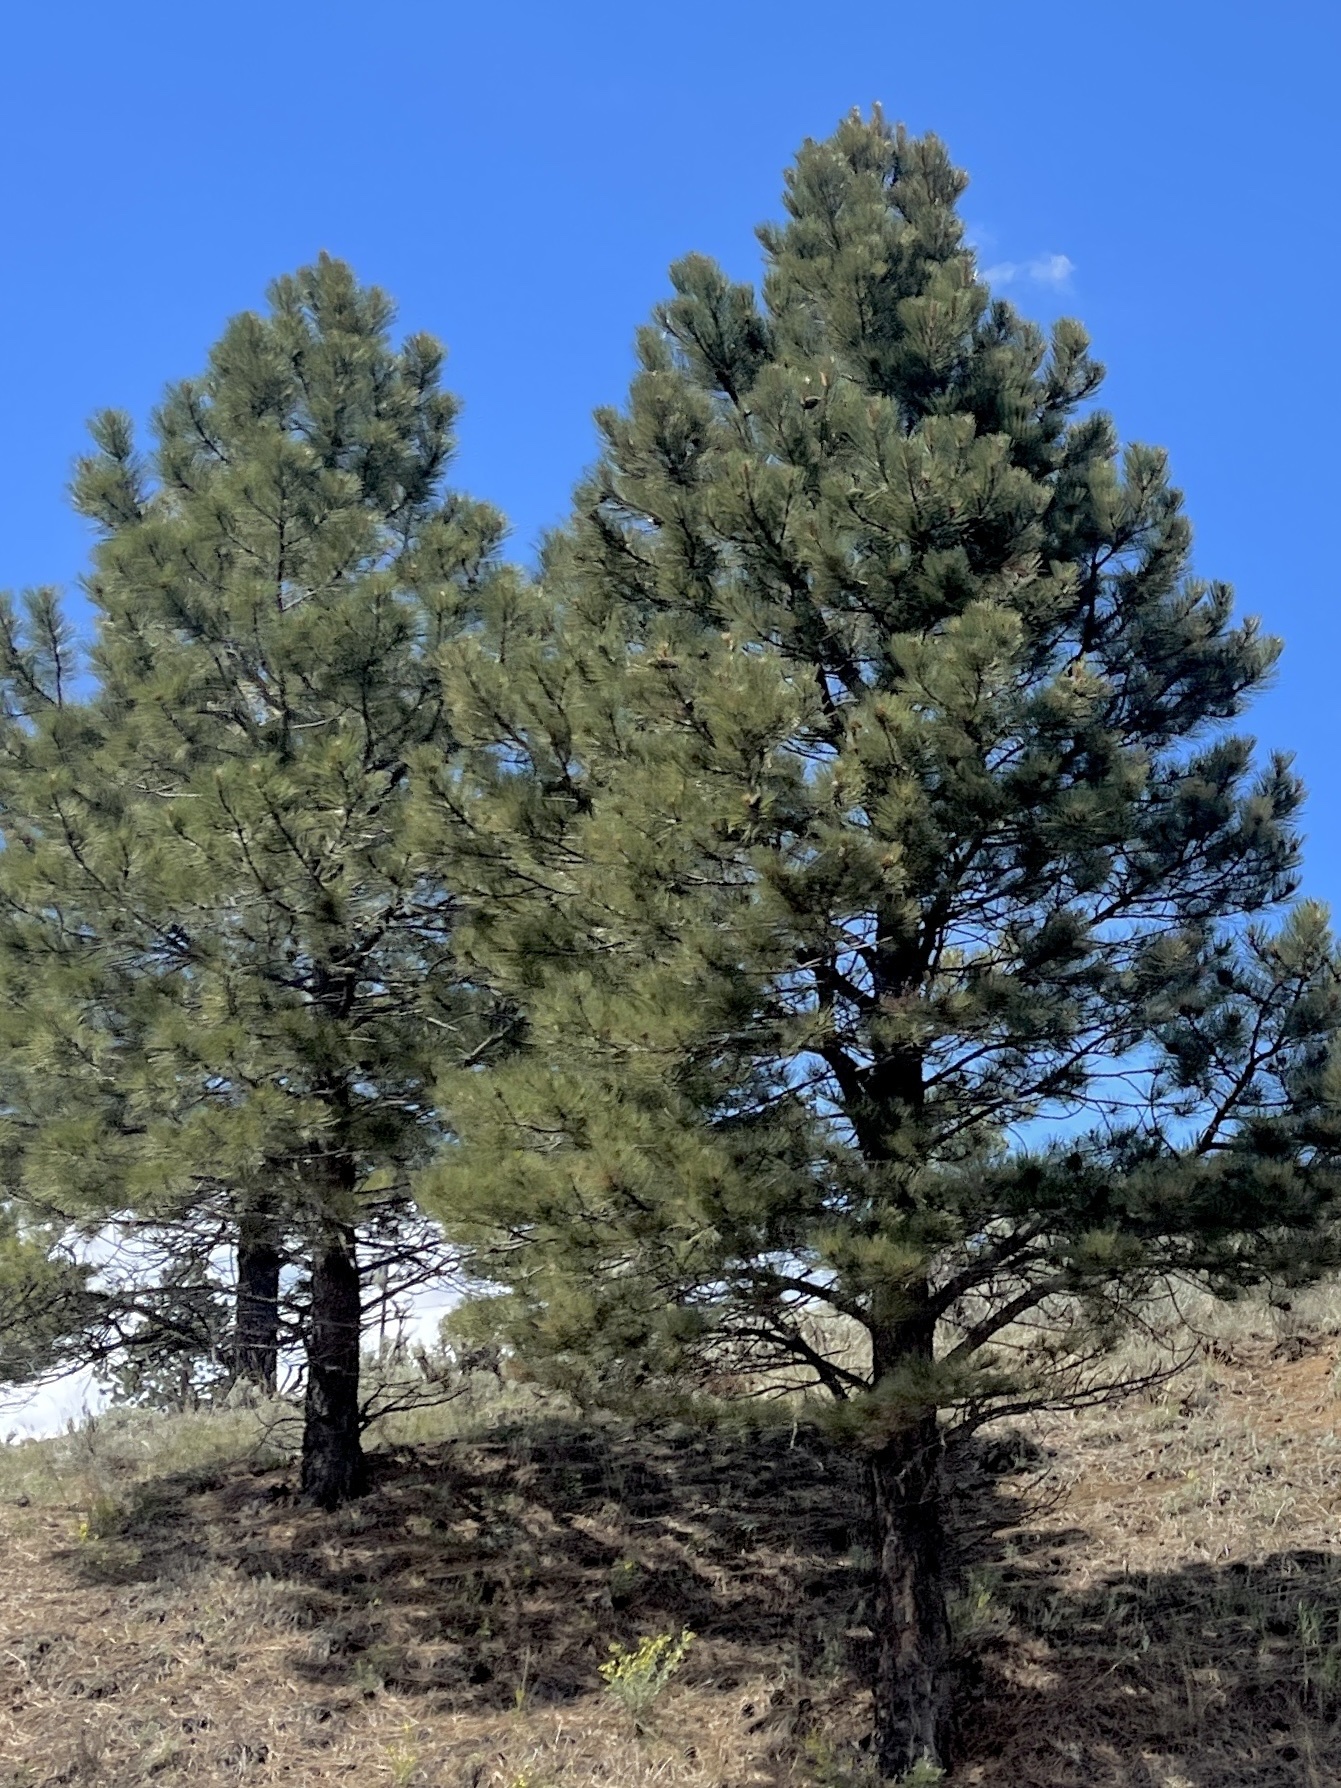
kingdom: Plantae
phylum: Tracheophyta
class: Pinopsida
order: Pinales
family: Pinaceae
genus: Pinus
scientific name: Pinus ponderosa
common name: Western yellow-pine
